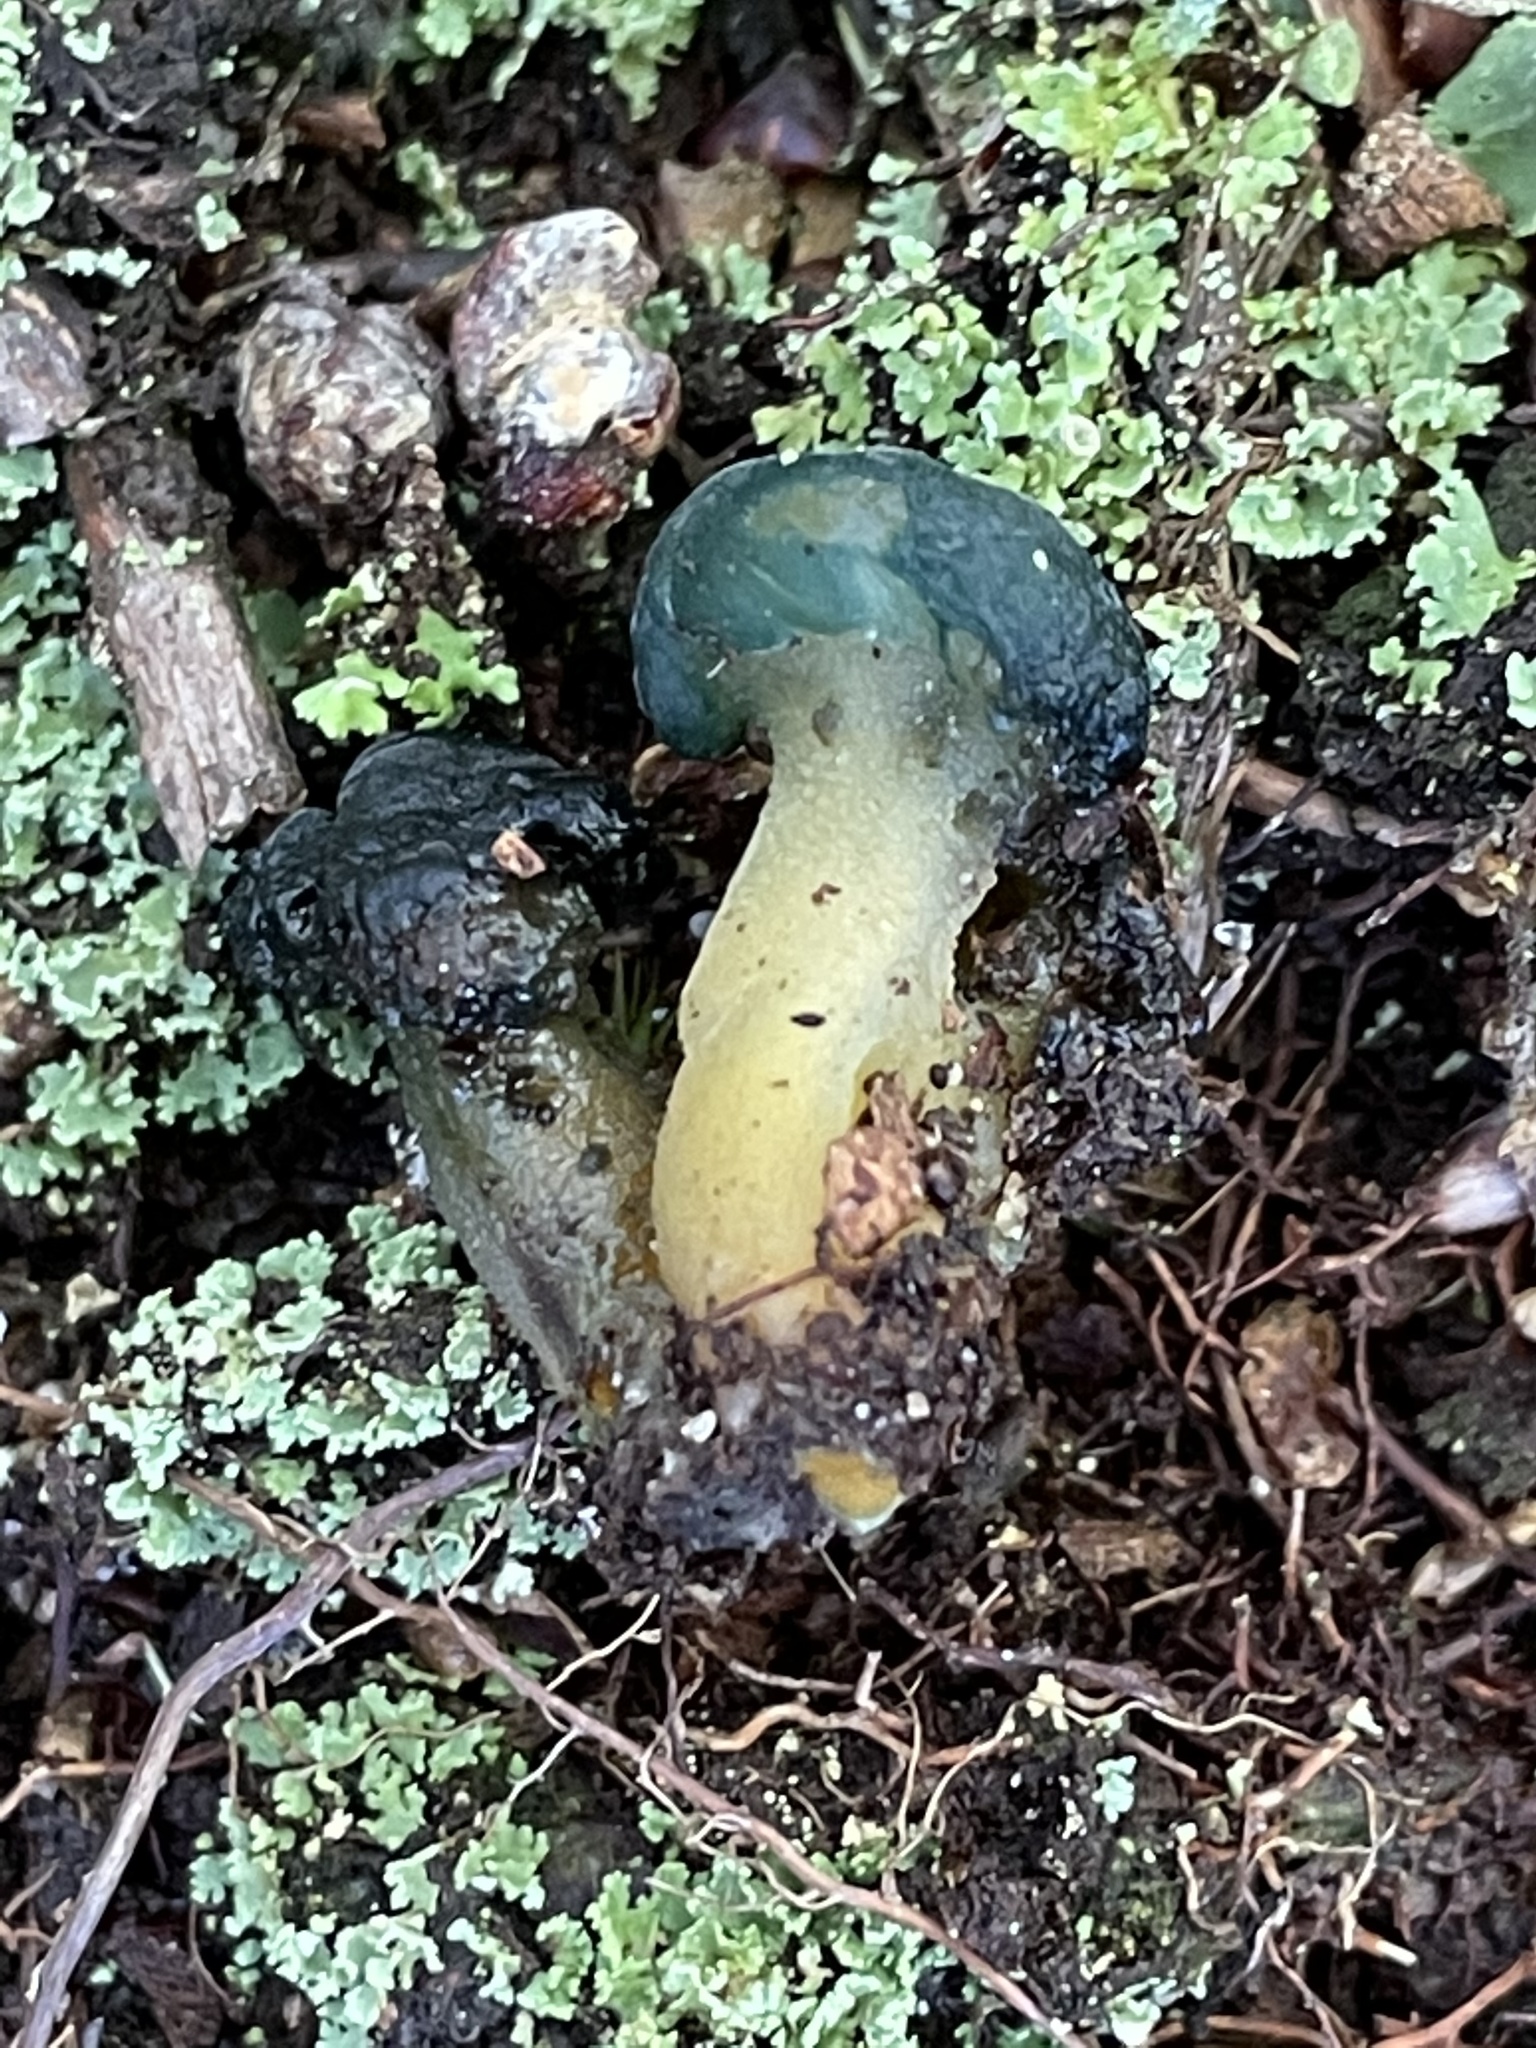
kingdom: Fungi
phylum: Ascomycota
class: Leotiomycetes
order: Leotiales
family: Leotiaceae
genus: Leotia
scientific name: Leotia lubrica
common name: Jellybaby
